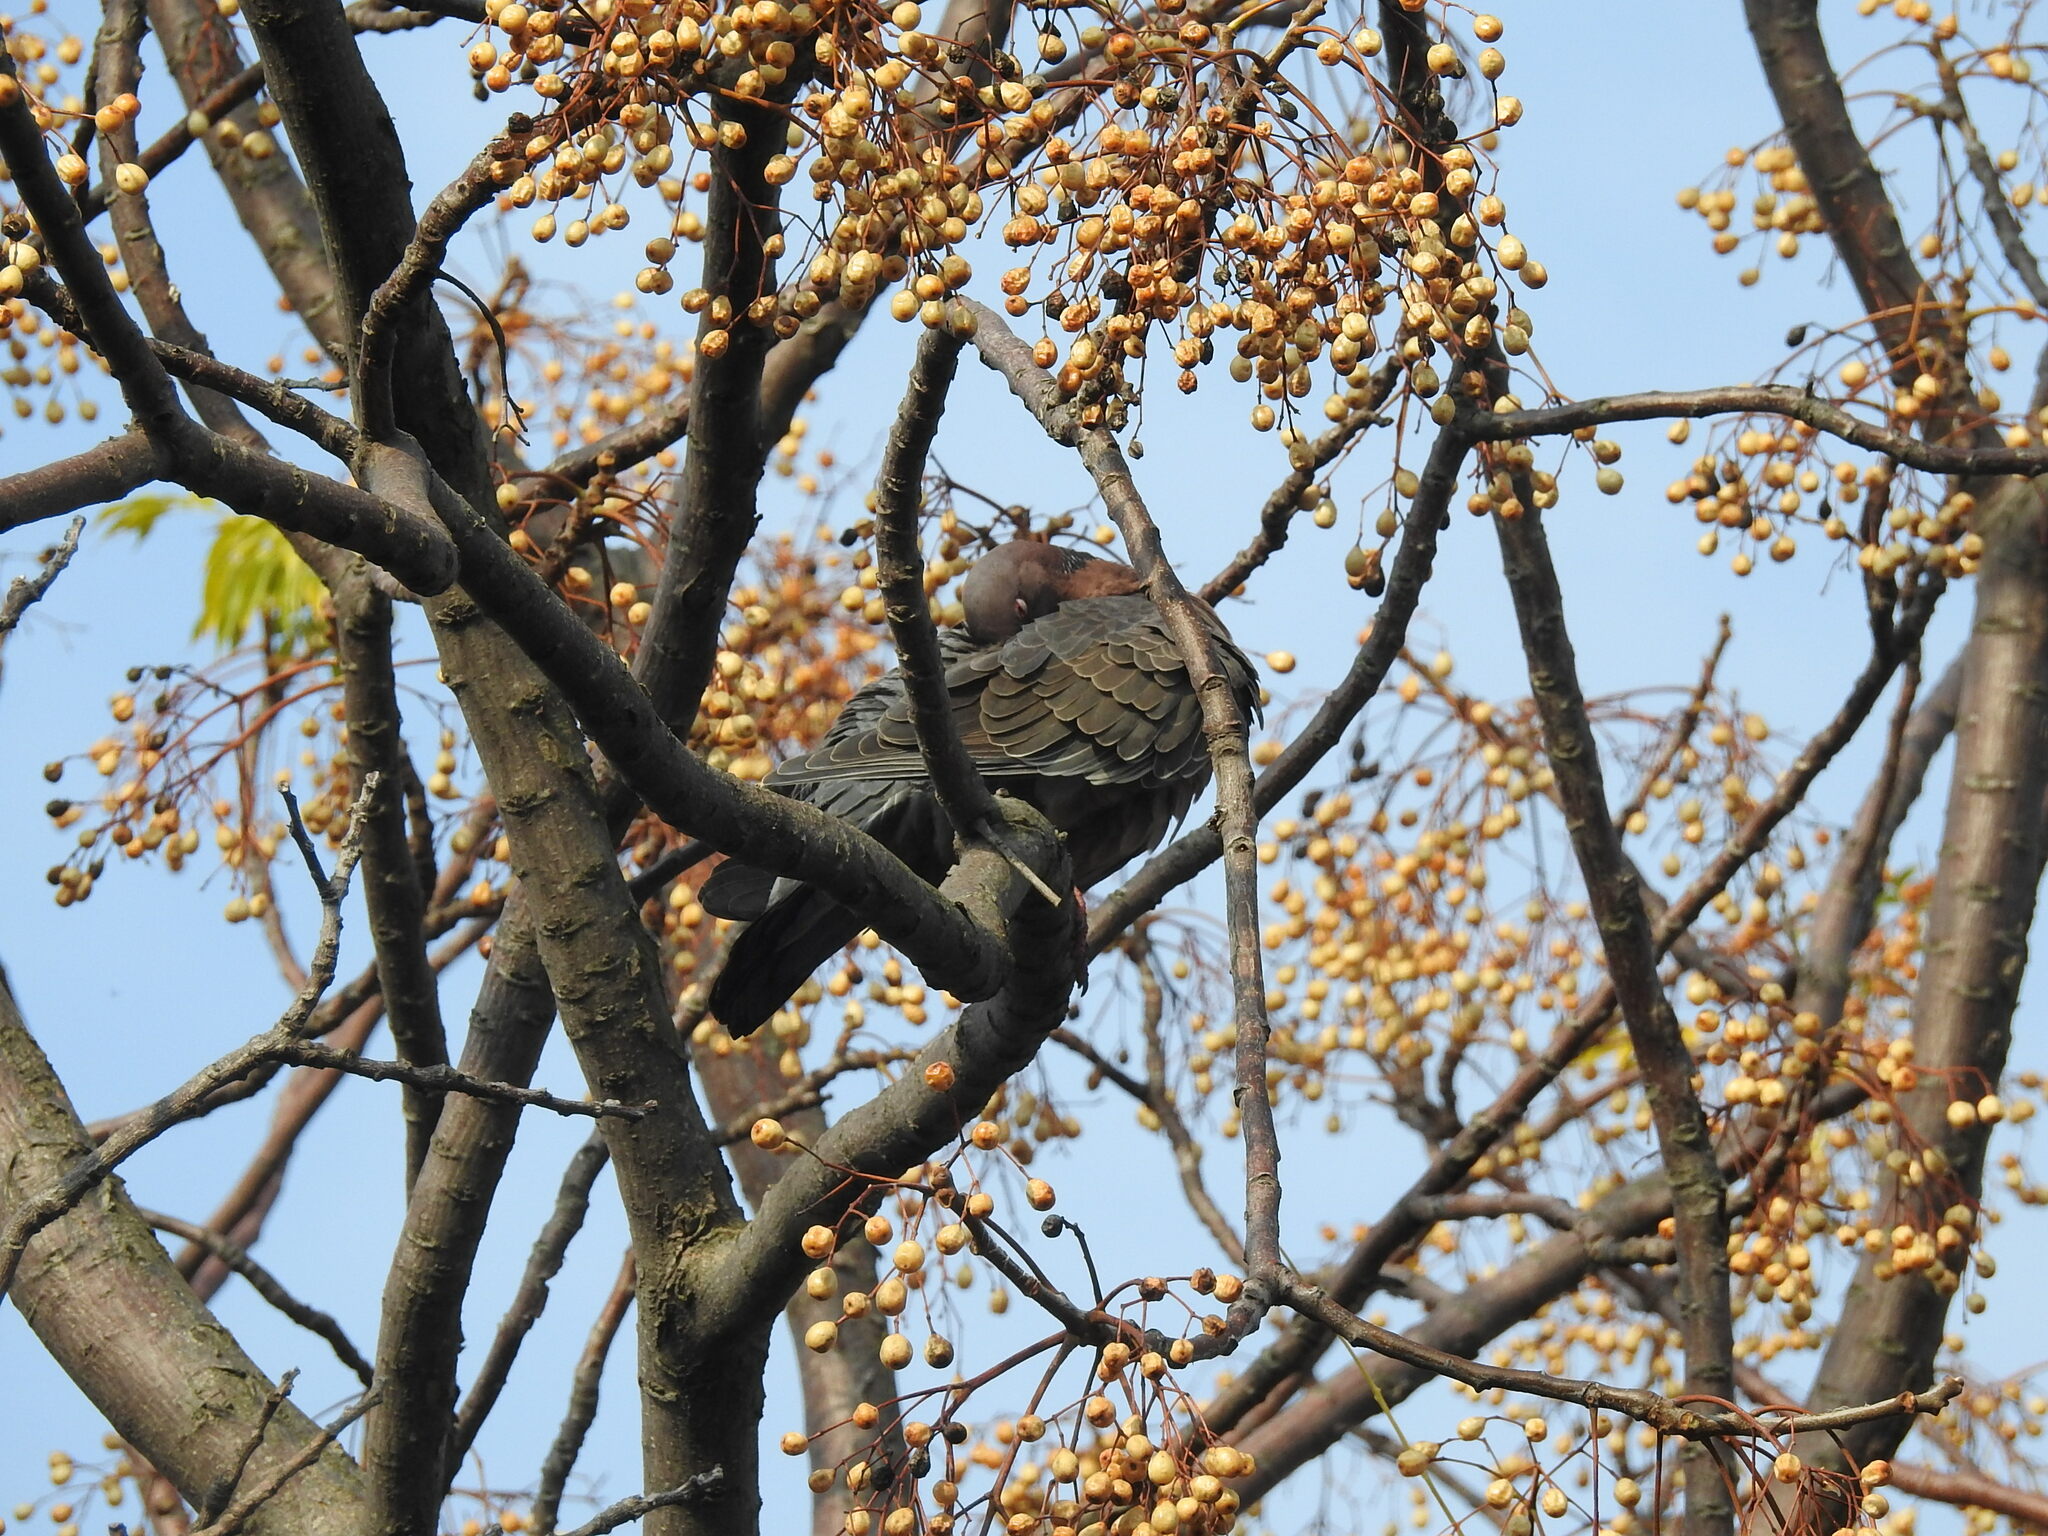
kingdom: Animalia
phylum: Chordata
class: Aves
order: Columbiformes
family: Columbidae
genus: Patagioenas
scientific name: Patagioenas picazuro
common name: Picazuro pigeon
